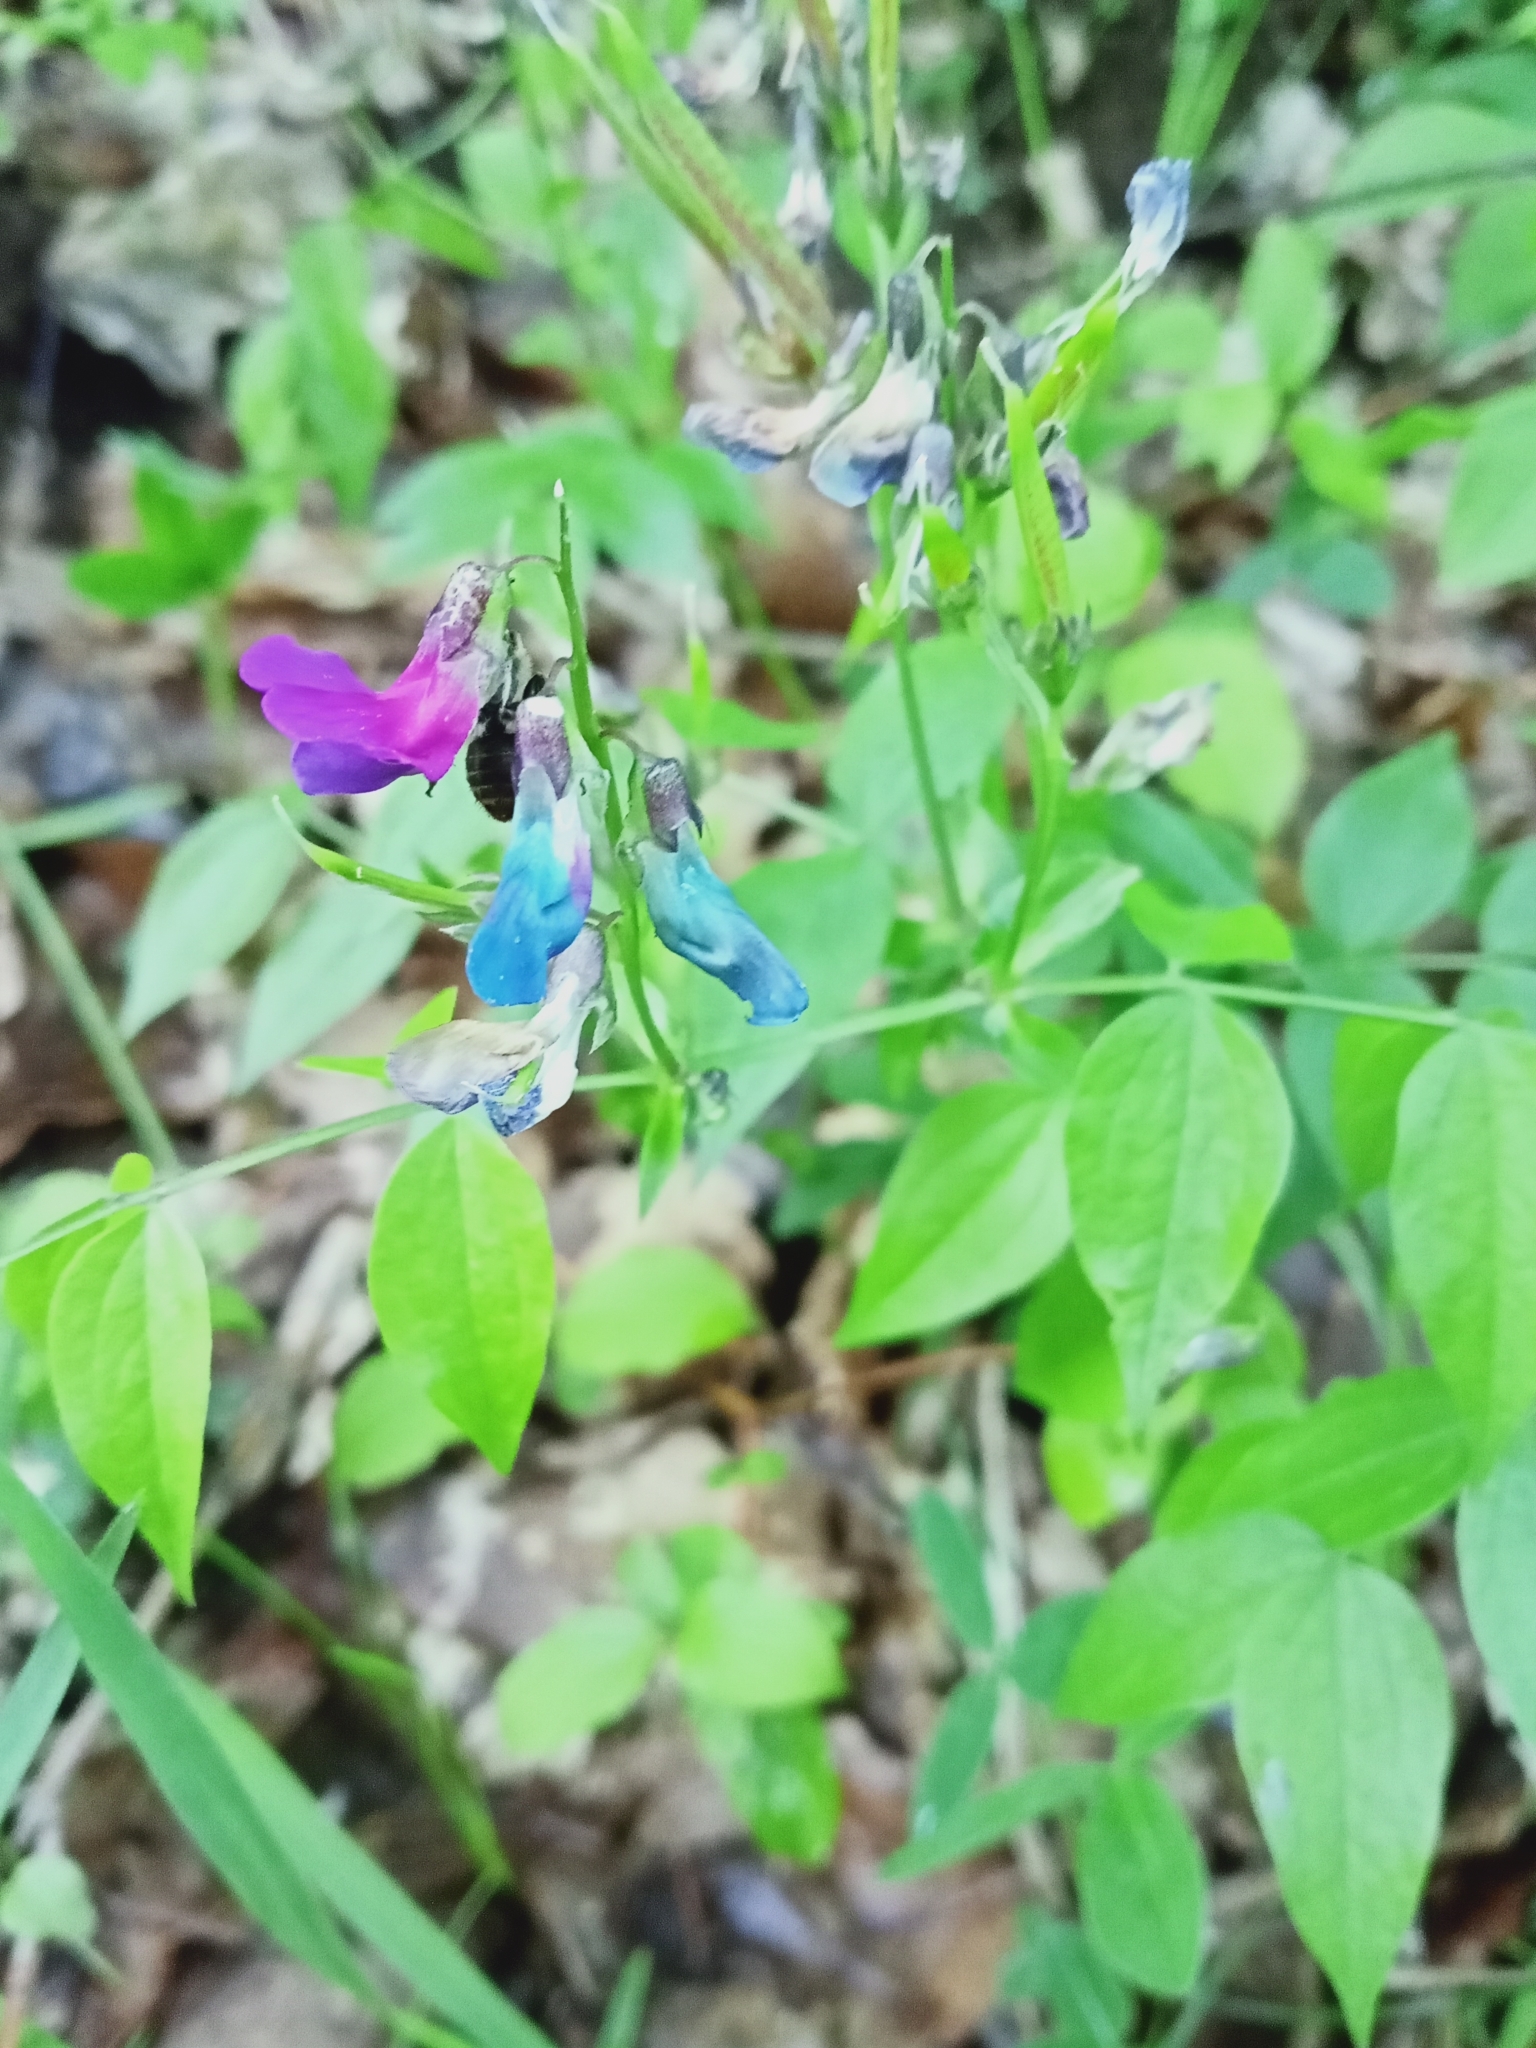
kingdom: Plantae
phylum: Tracheophyta
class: Magnoliopsida
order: Fabales
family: Fabaceae
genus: Lathyrus
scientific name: Lathyrus vernus
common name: Spring pea
